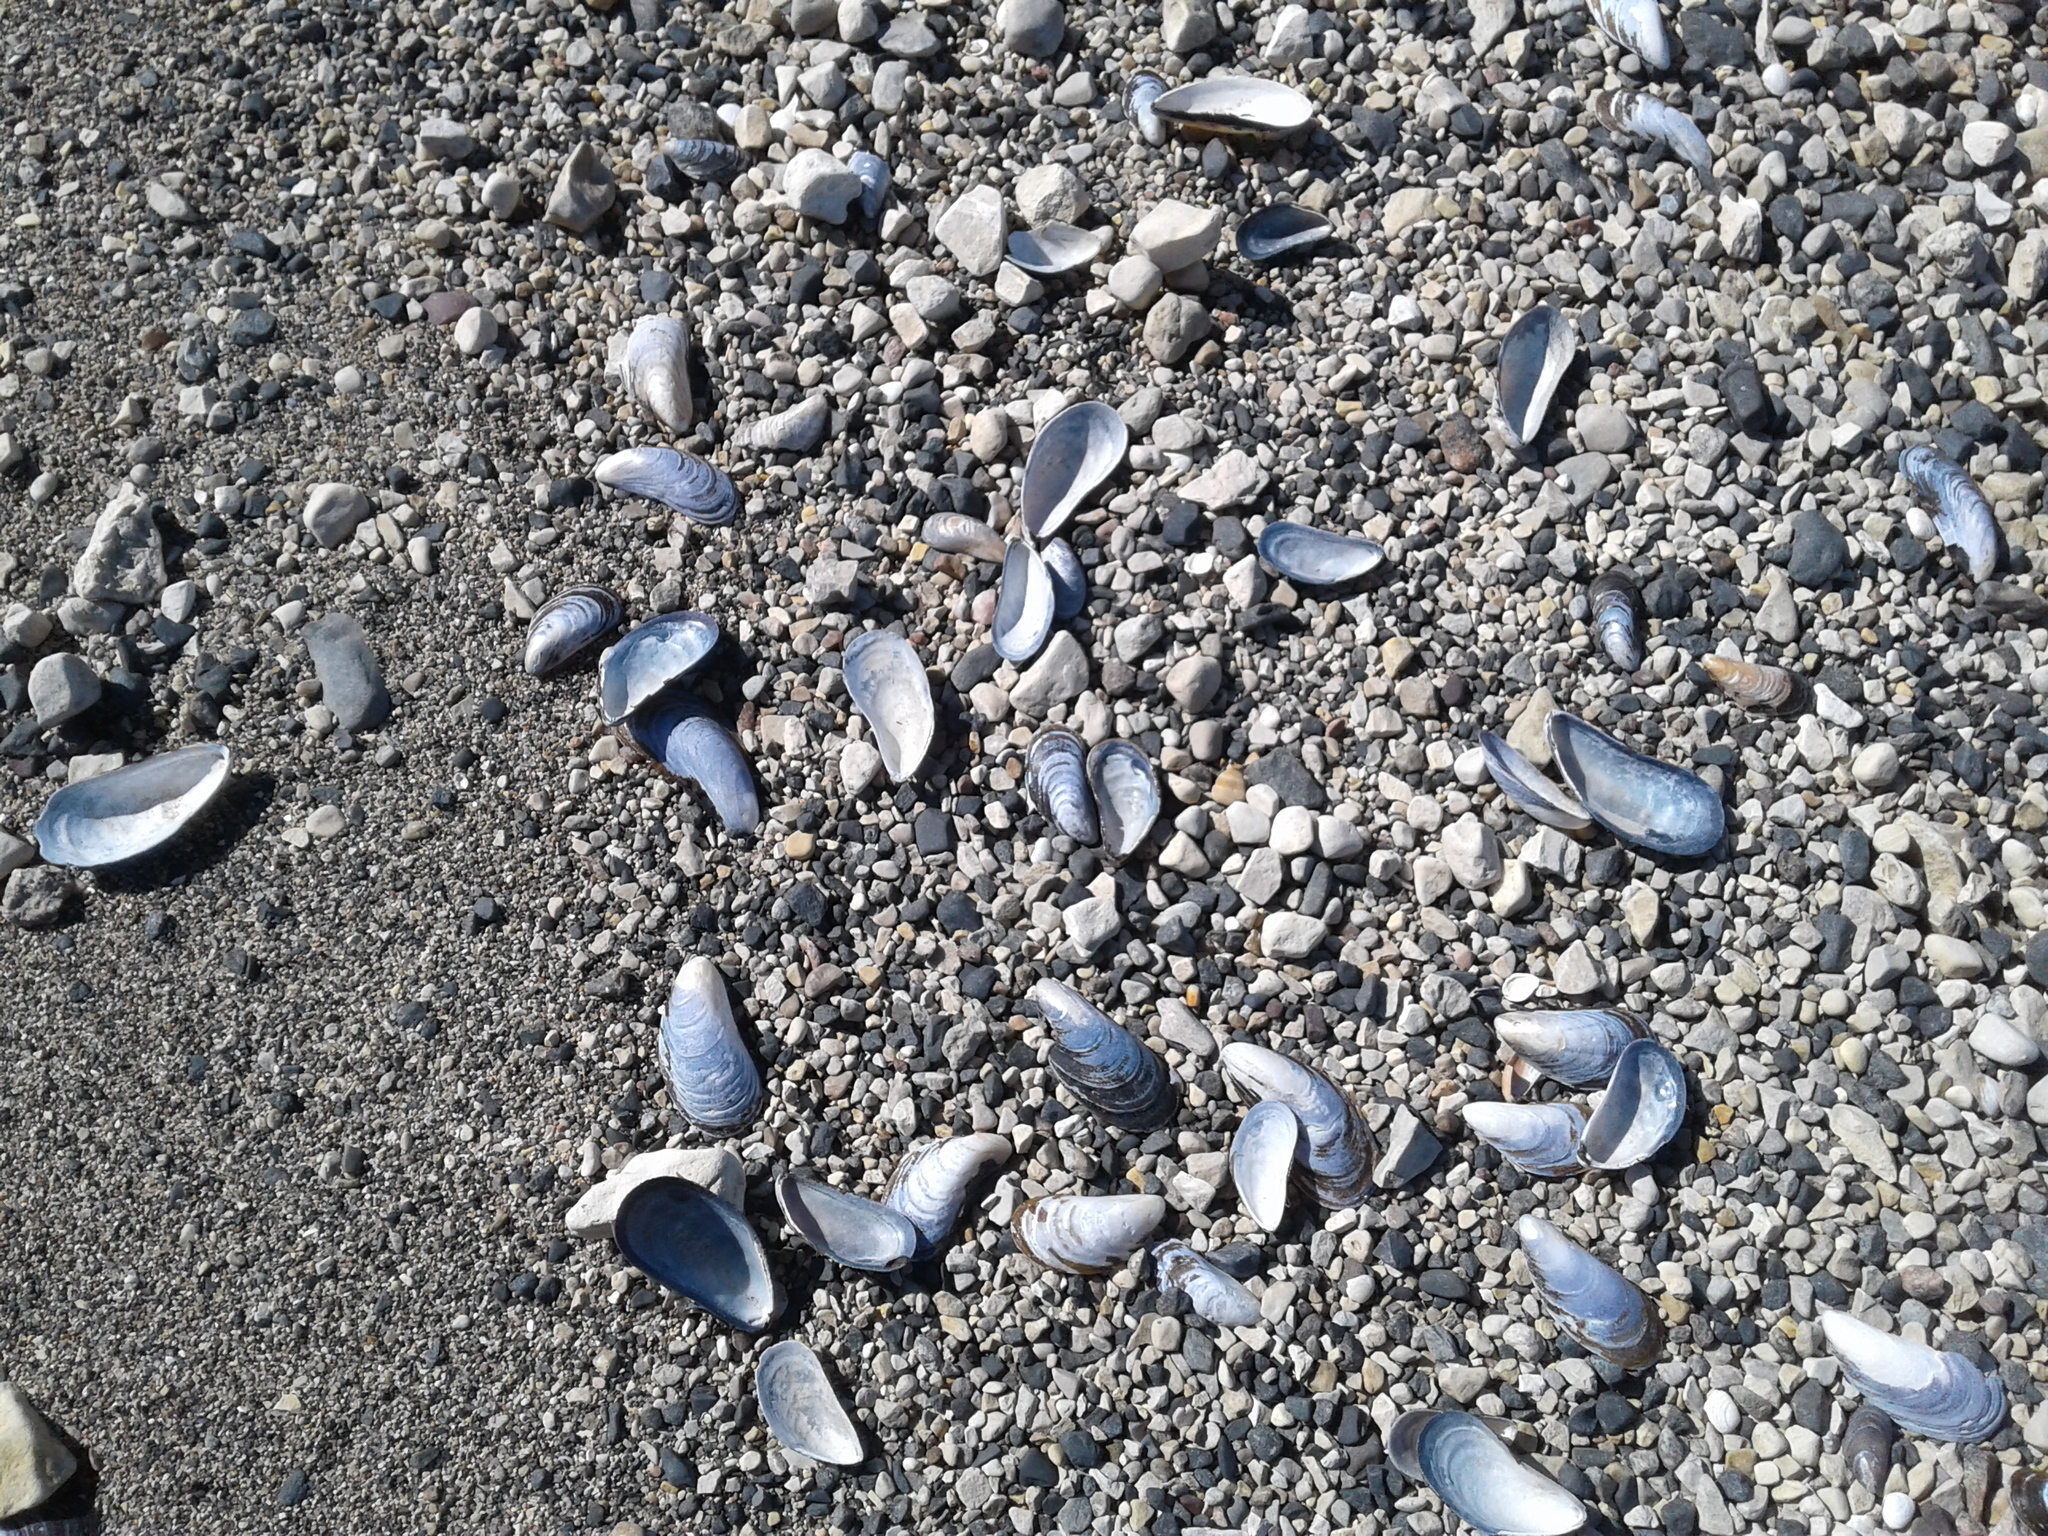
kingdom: Animalia
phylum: Mollusca
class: Bivalvia
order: Mytilida
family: Mytilidae
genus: Mytilus
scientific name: Mytilus edulis
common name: Blue mussel
